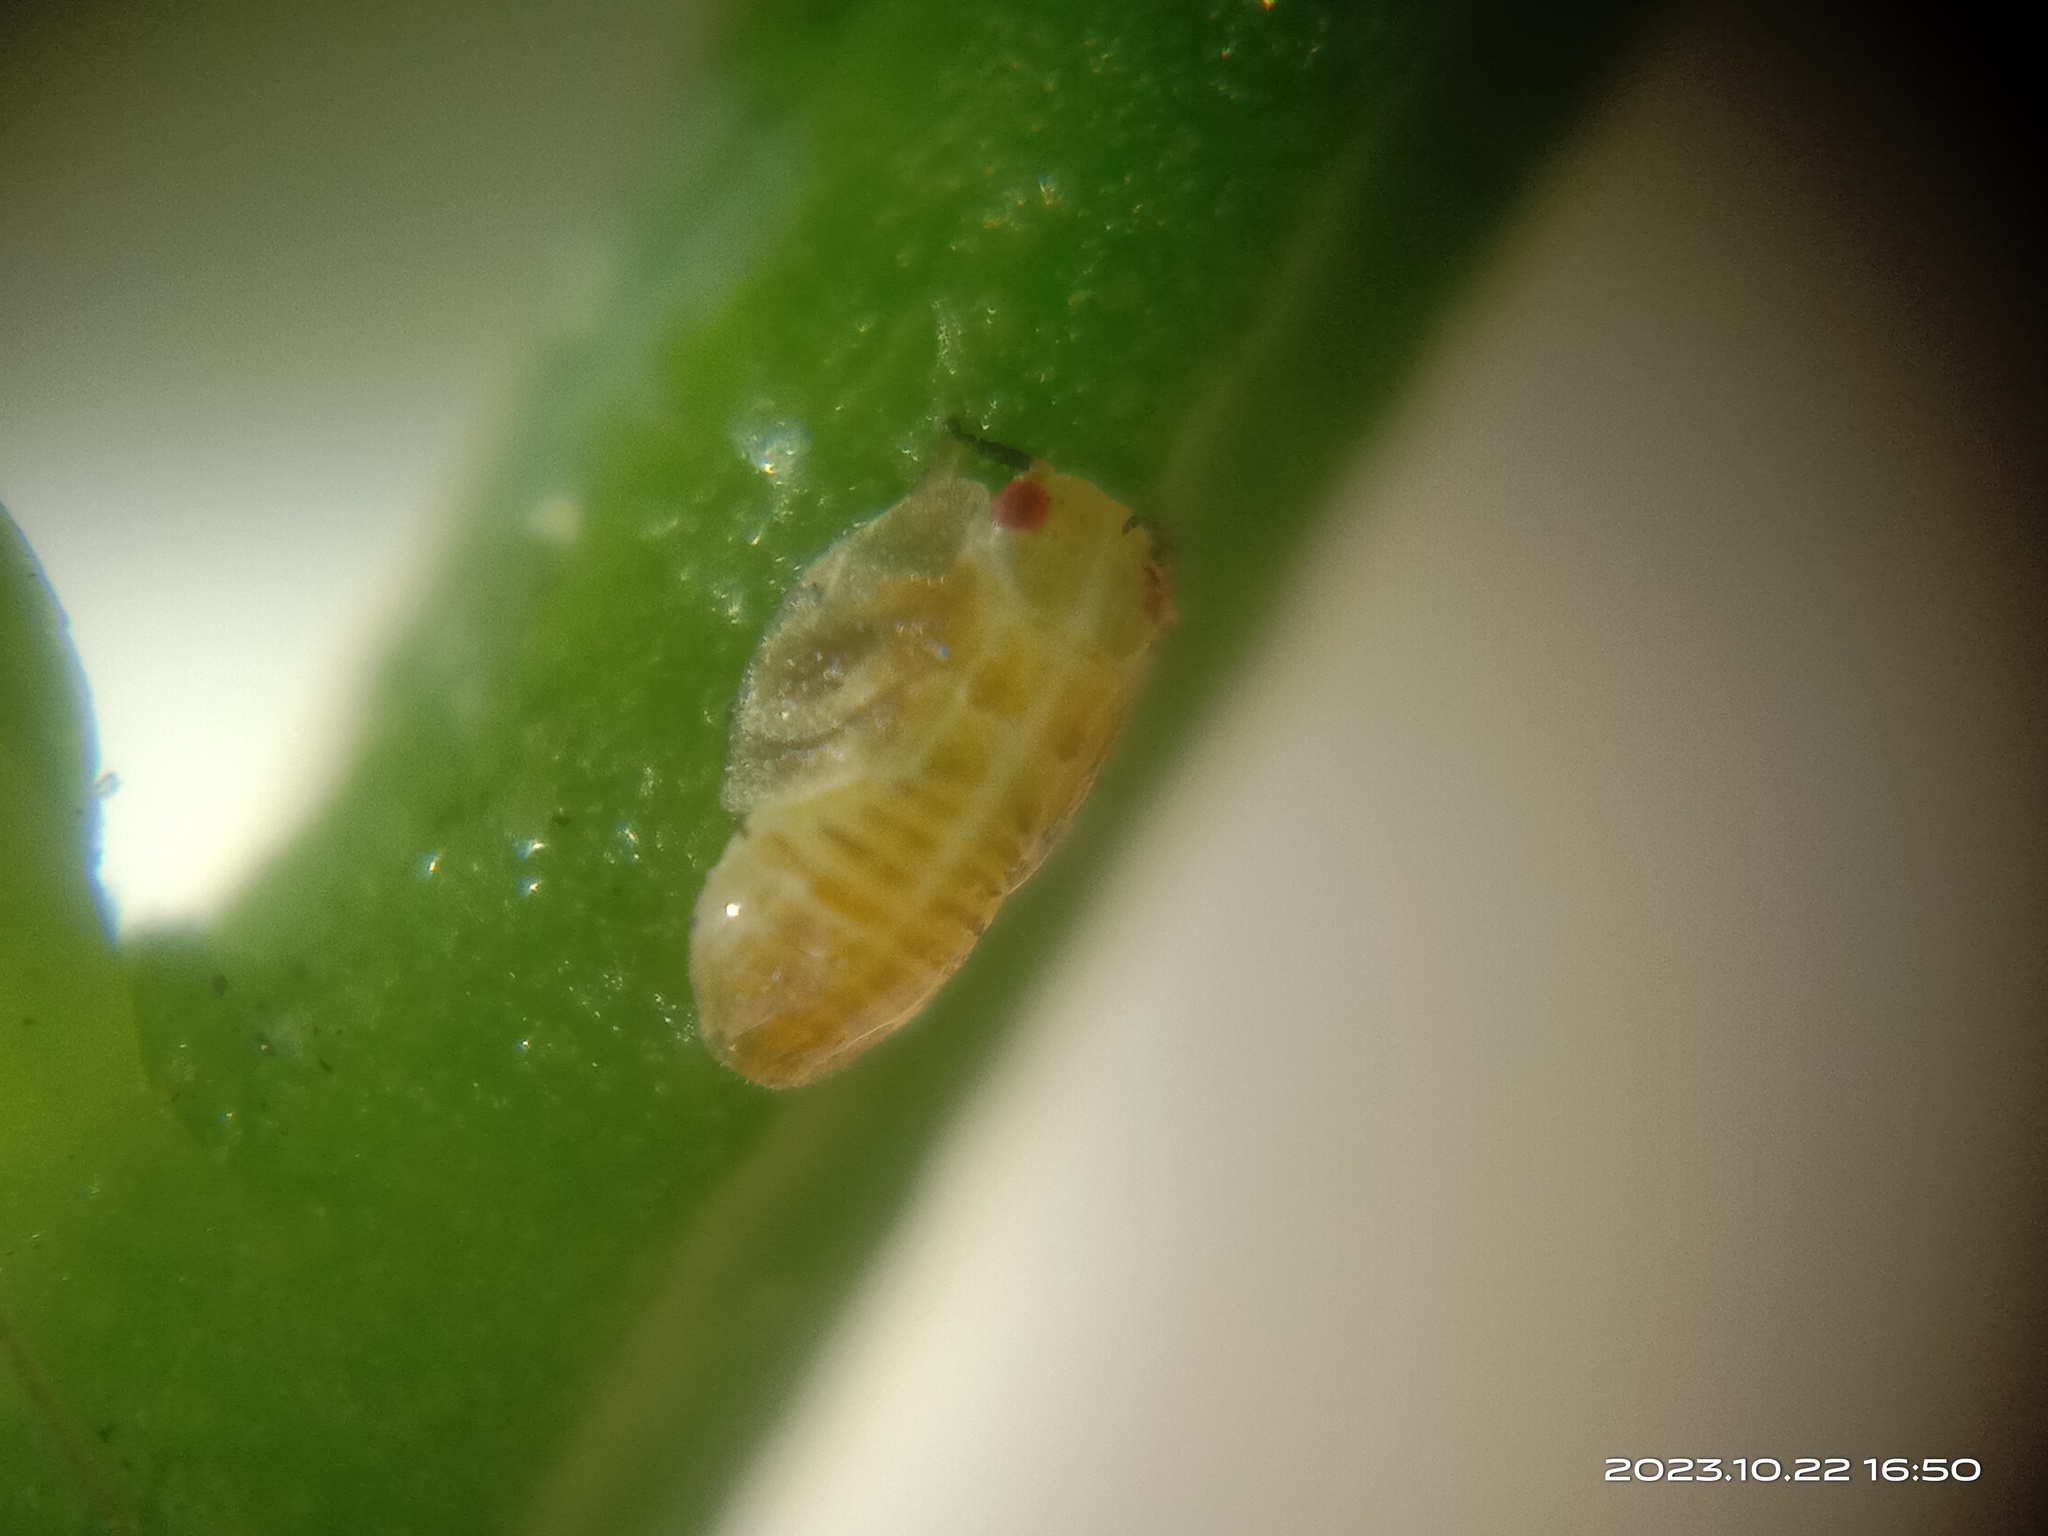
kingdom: Animalia
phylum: Arthropoda
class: Insecta
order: Hemiptera
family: Liviidae
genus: Diaphorina
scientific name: Diaphorina citri
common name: Asian citrus psyllid
